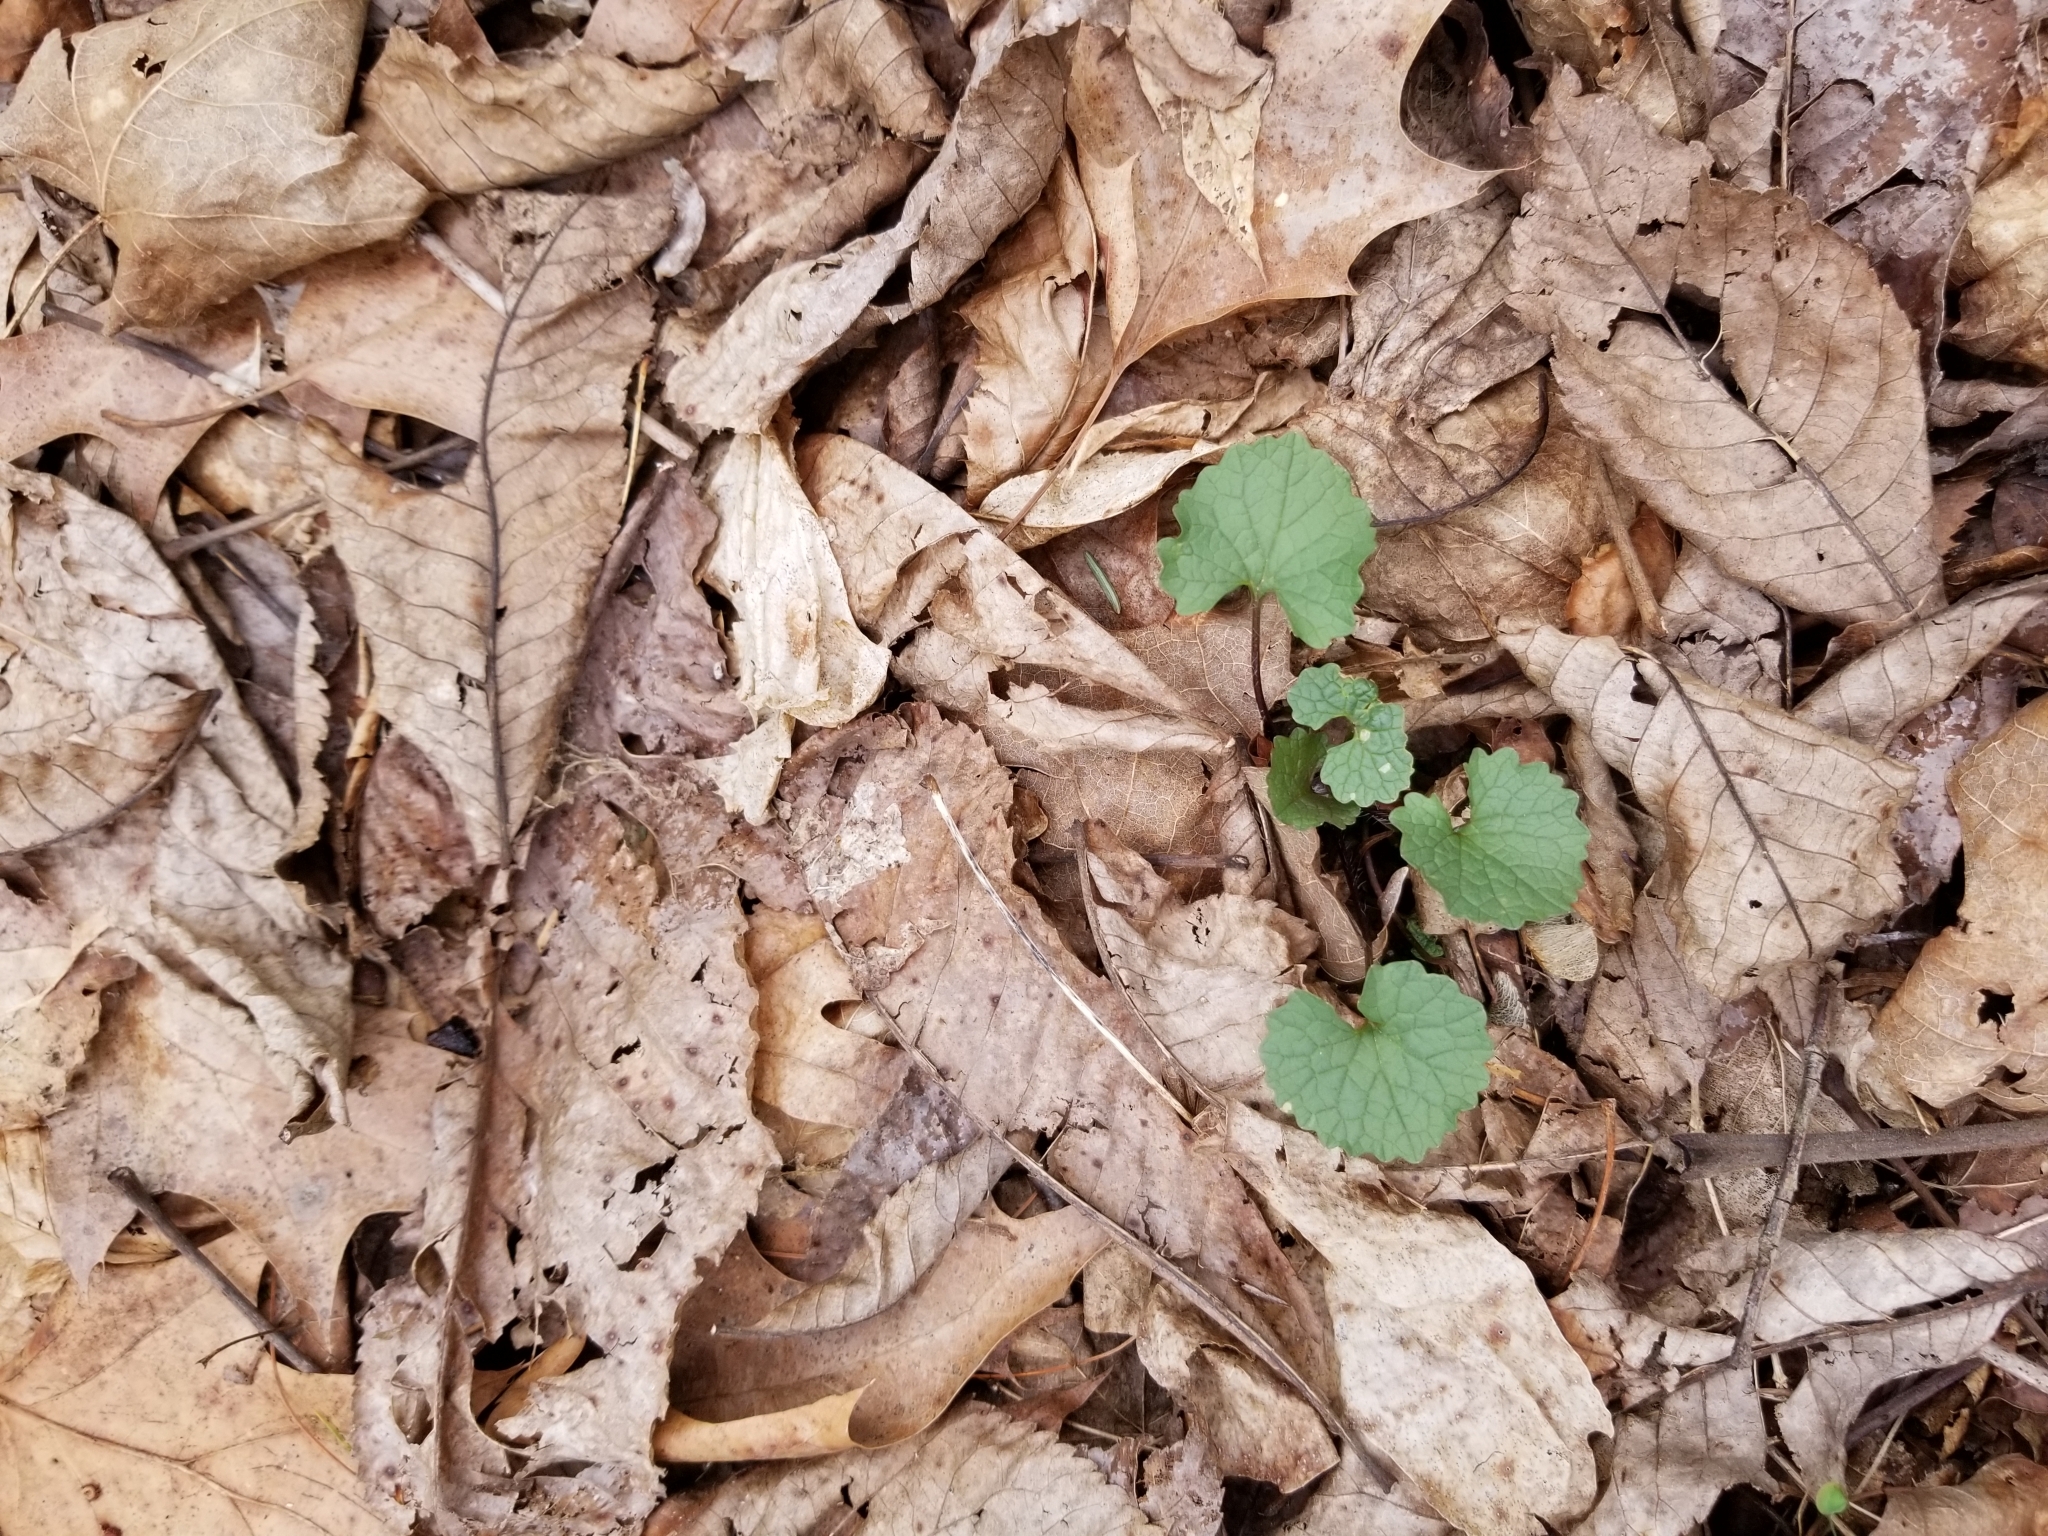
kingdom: Plantae
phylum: Tracheophyta
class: Magnoliopsida
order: Brassicales
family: Brassicaceae
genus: Alliaria
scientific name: Alliaria petiolata
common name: Garlic mustard
